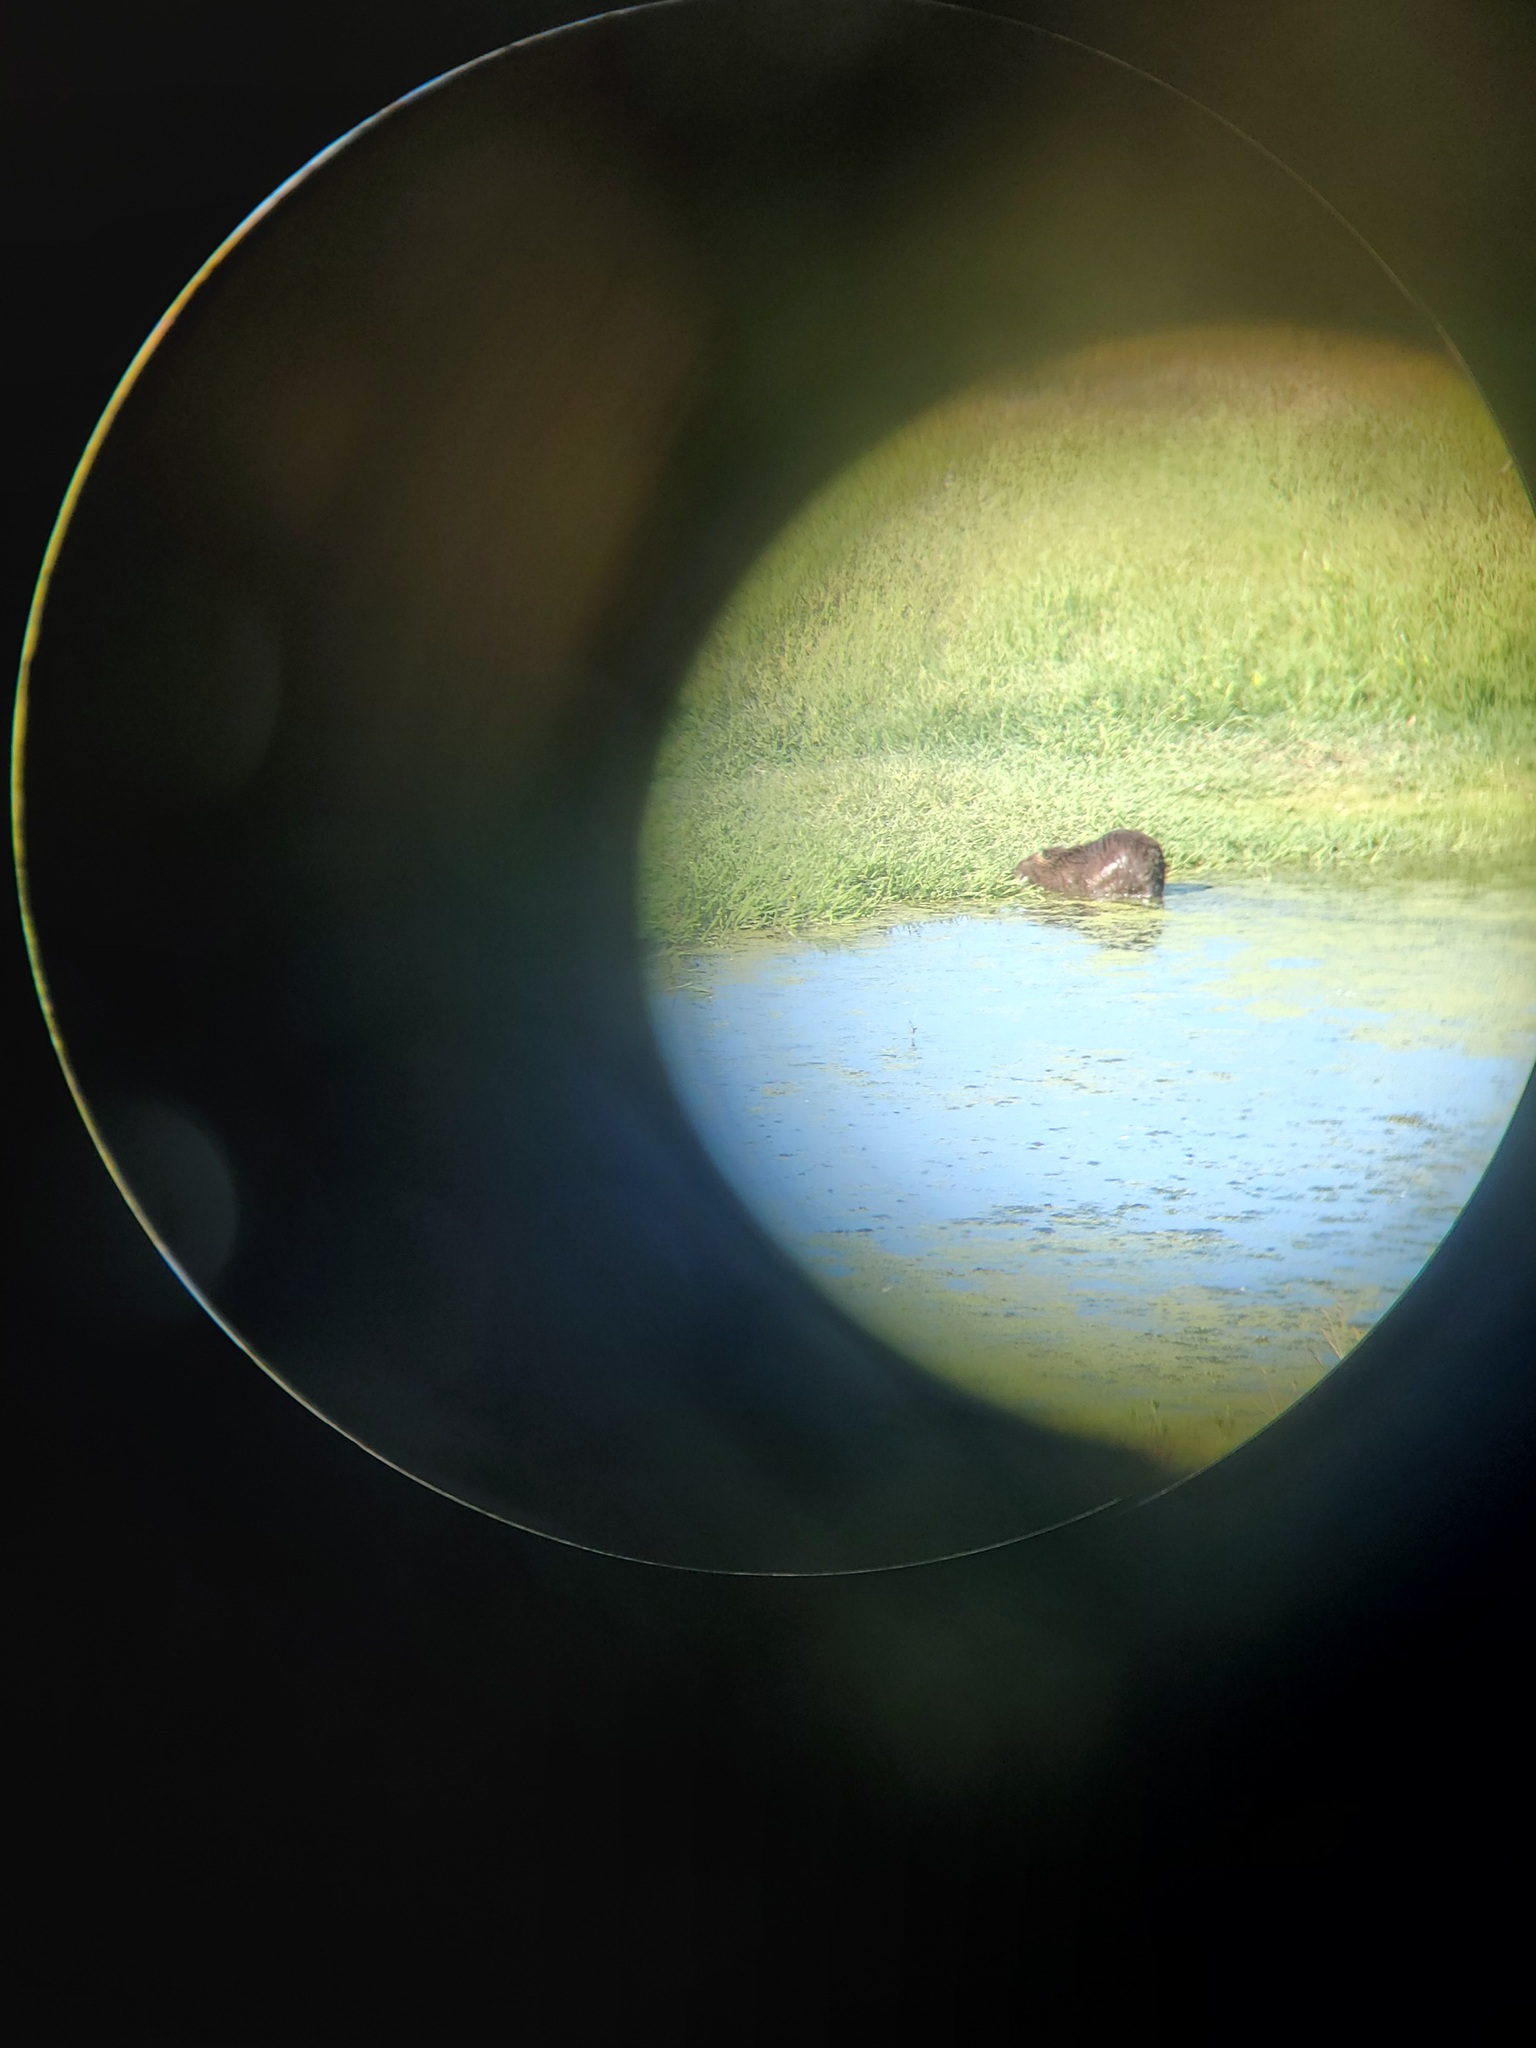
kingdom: Animalia
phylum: Chordata
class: Mammalia
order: Rodentia
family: Myocastoridae
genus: Myocastor
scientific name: Myocastor coypus
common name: Coypu
